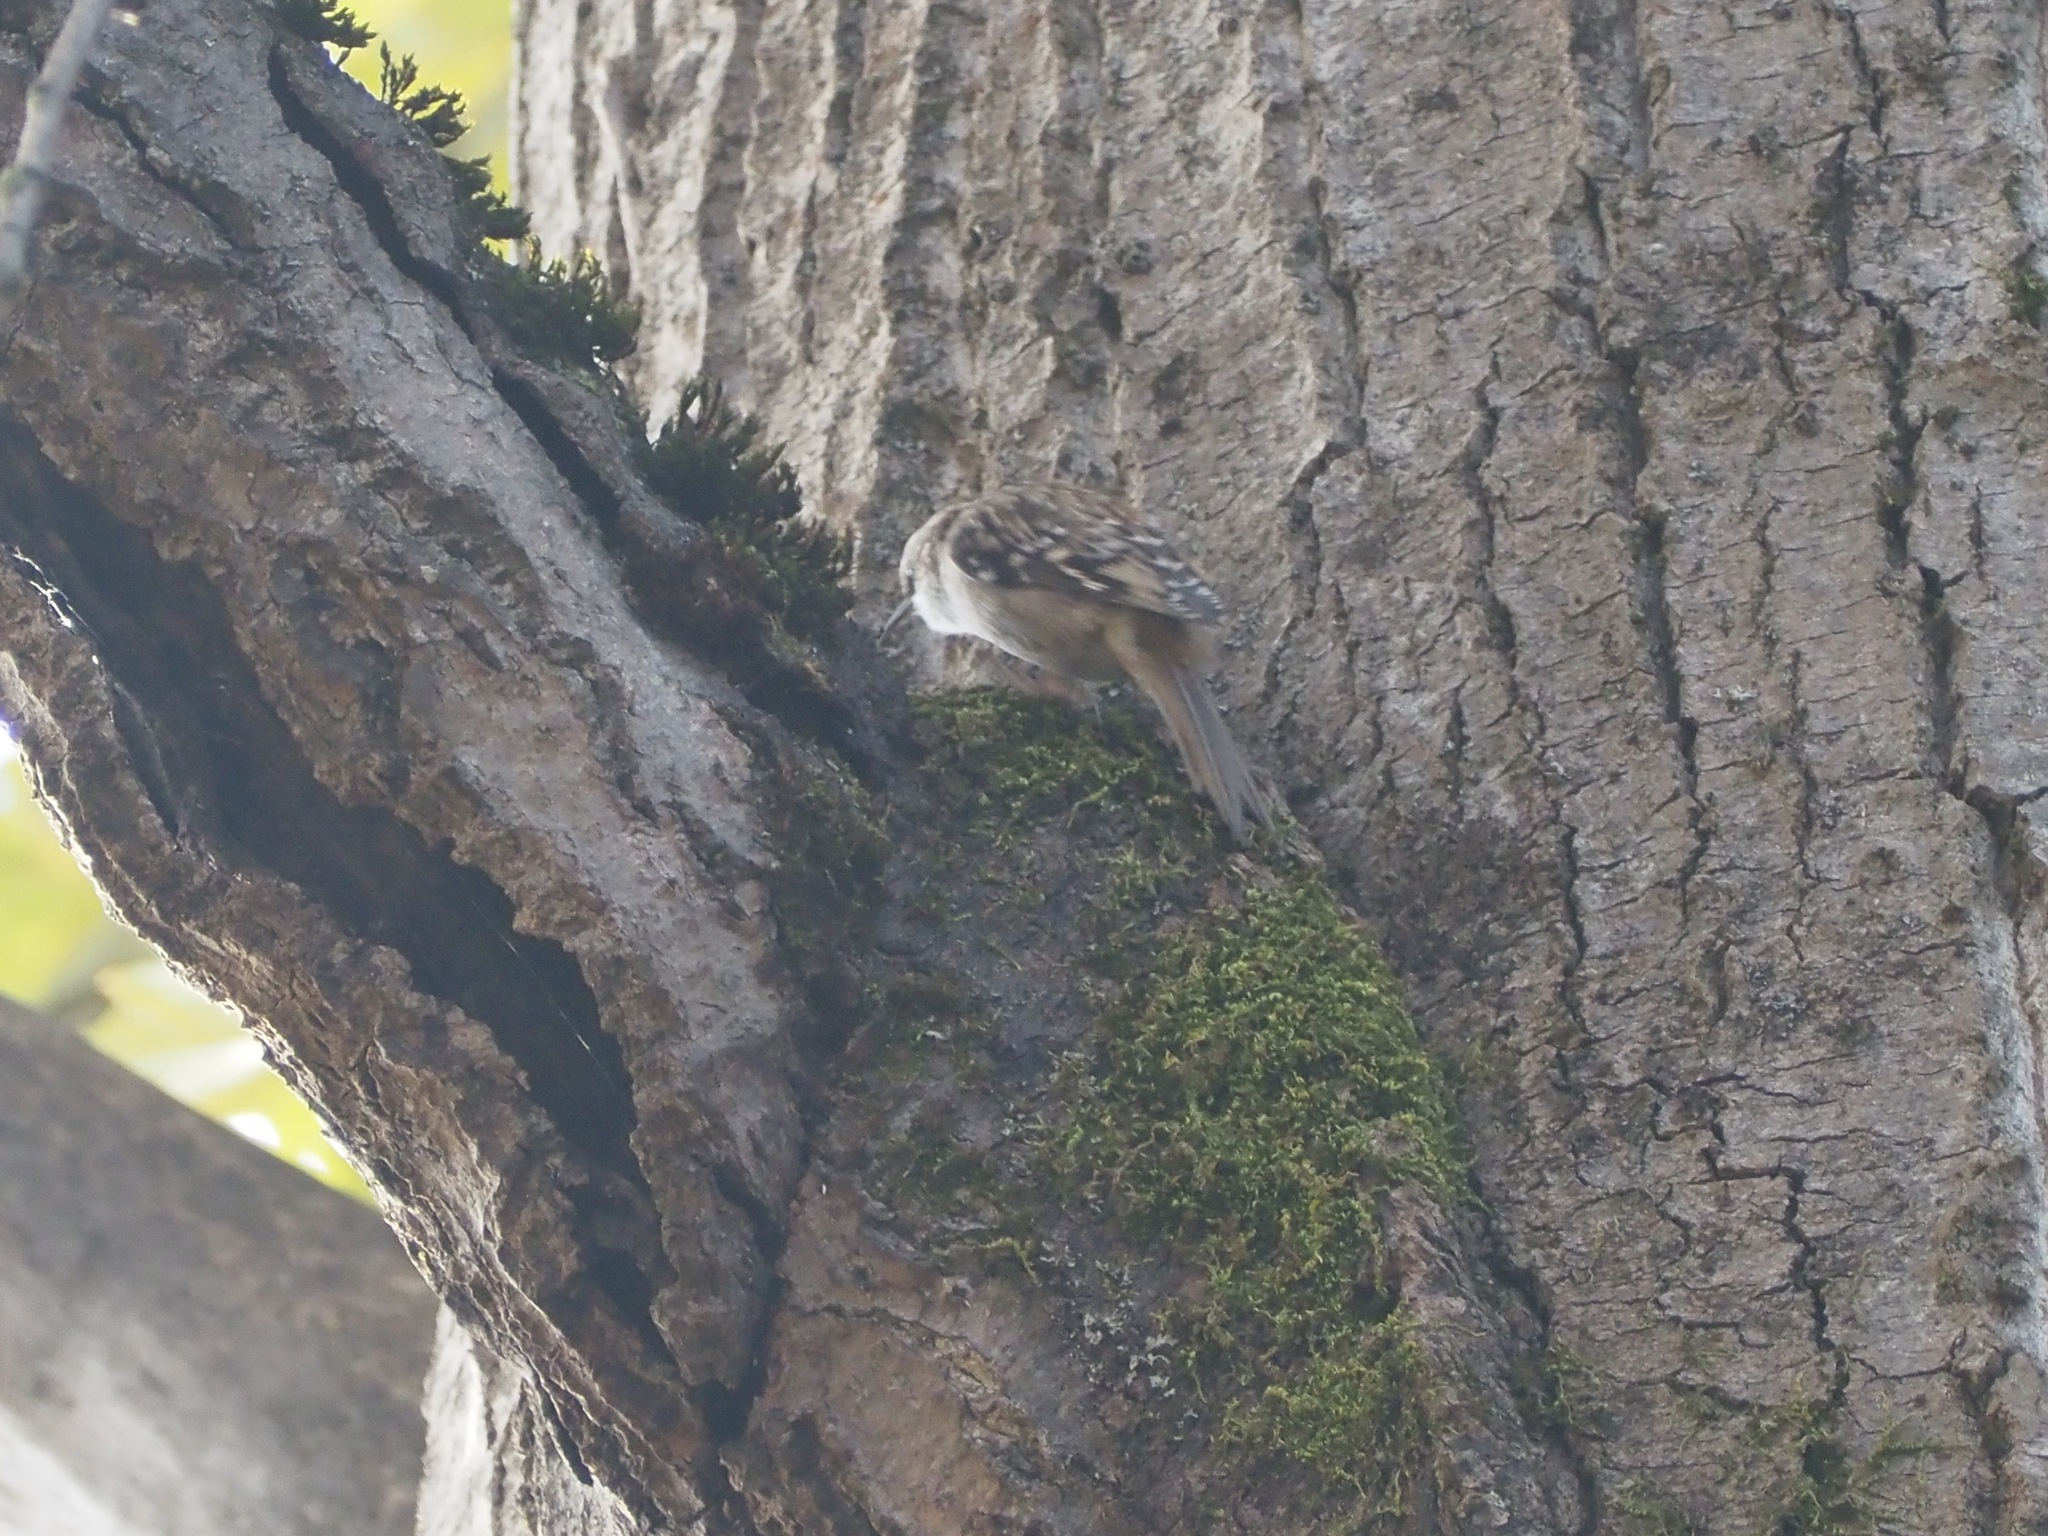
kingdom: Animalia
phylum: Chordata
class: Aves
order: Passeriformes
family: Certhiidae
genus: Certhia
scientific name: Certhia americana
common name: Brown creeper
